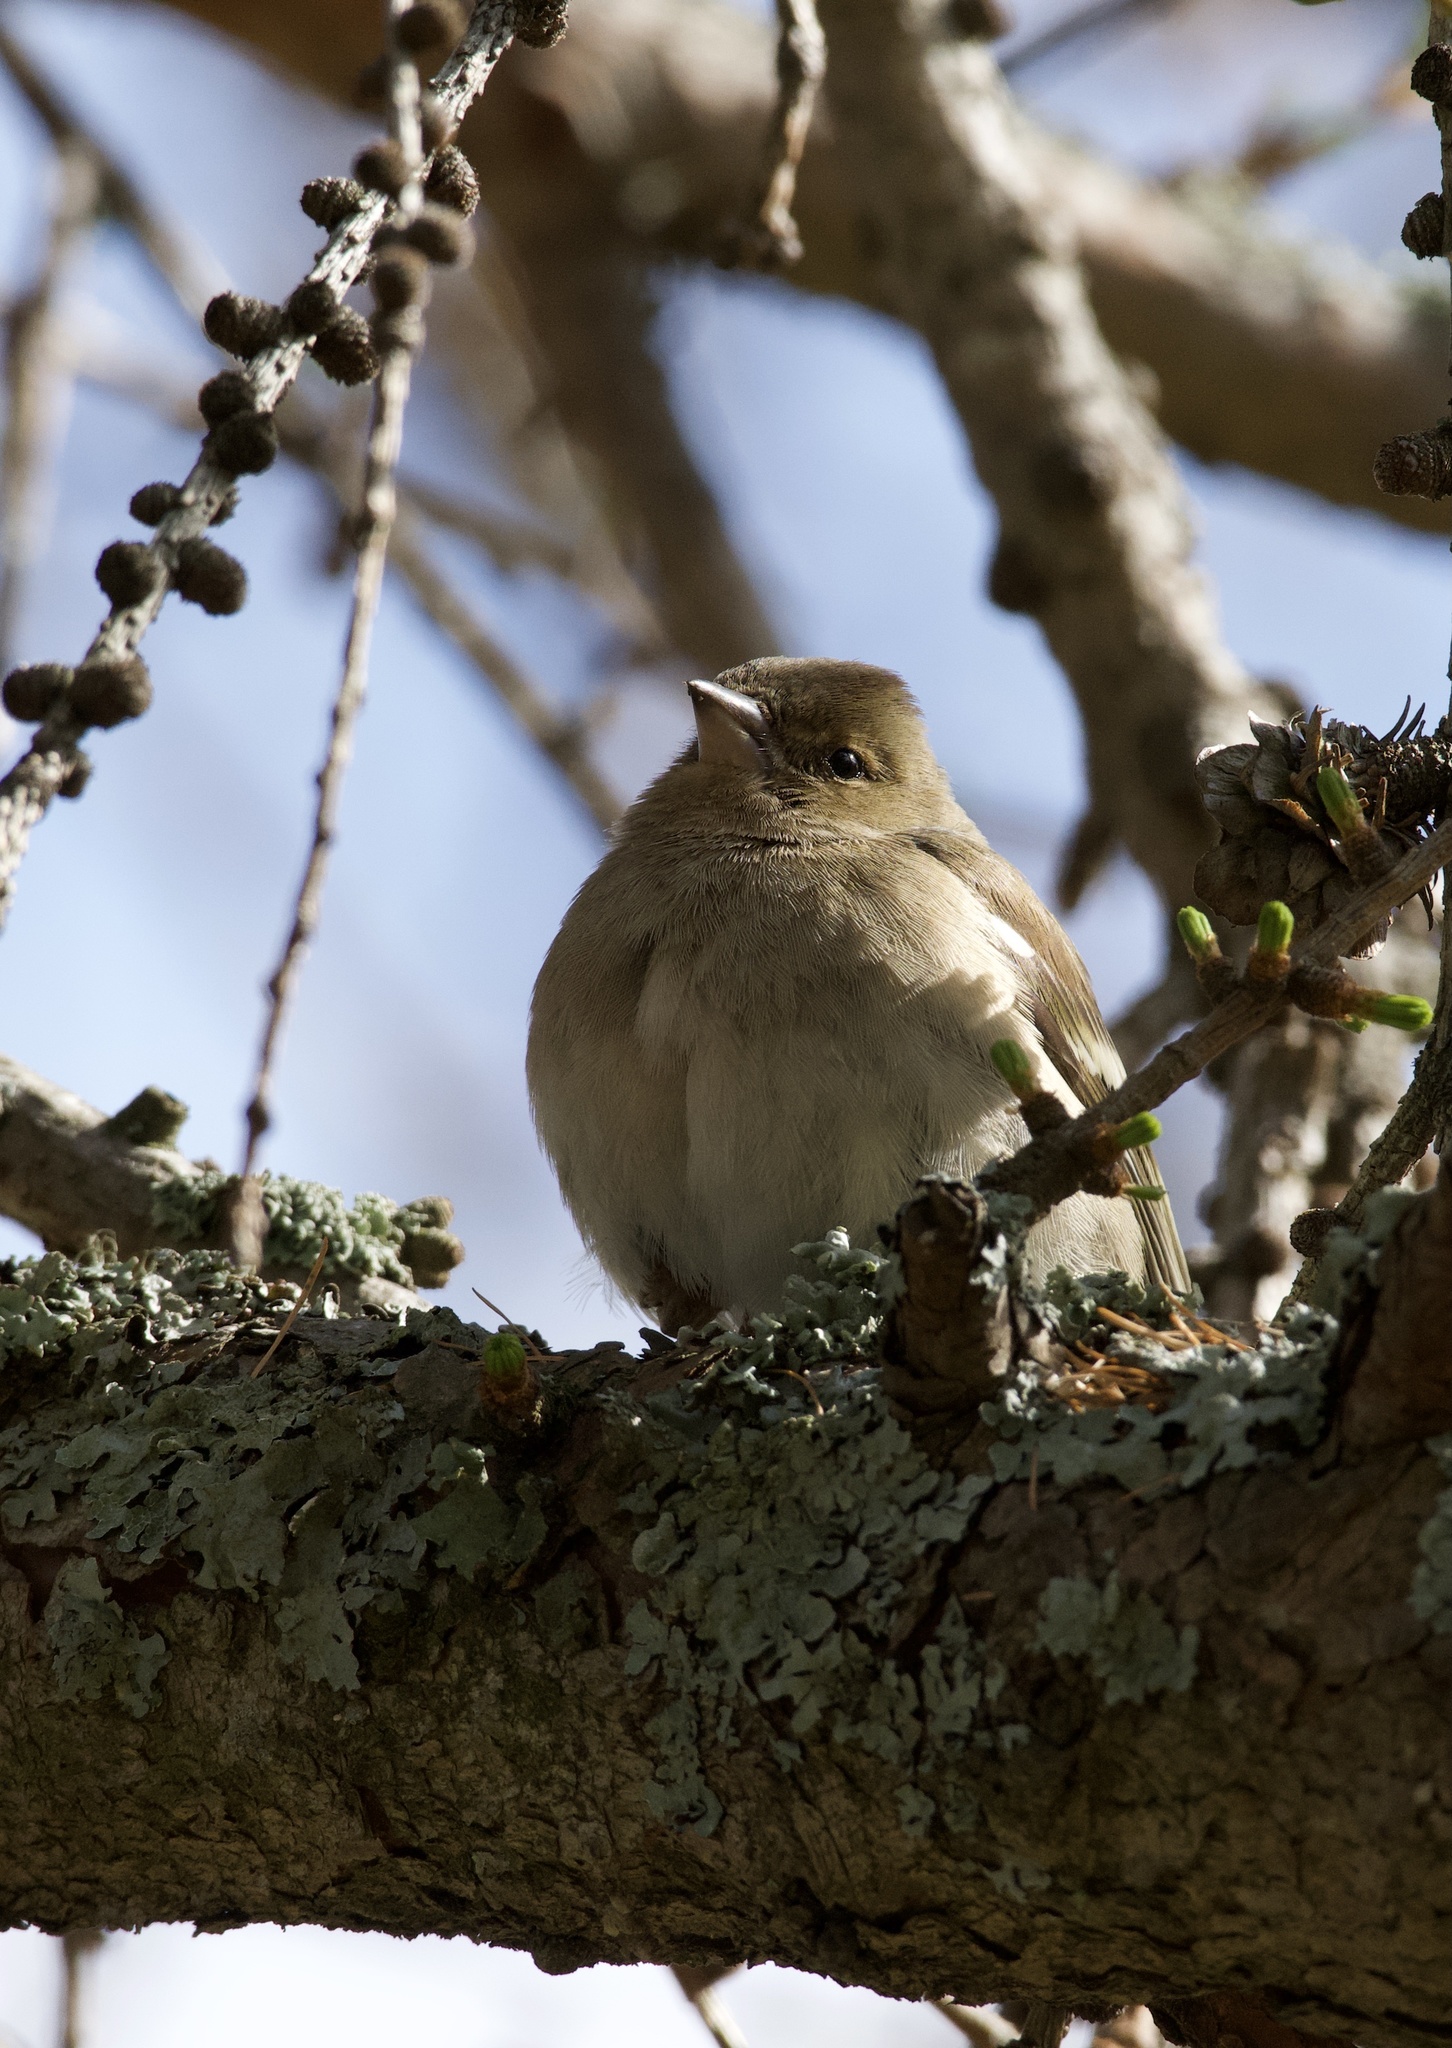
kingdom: Animalia
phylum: Chordata
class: Aves
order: Passeriformes
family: Fringillidae
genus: Fringilla
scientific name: Fringilla coelebs
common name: Common chaffinch
